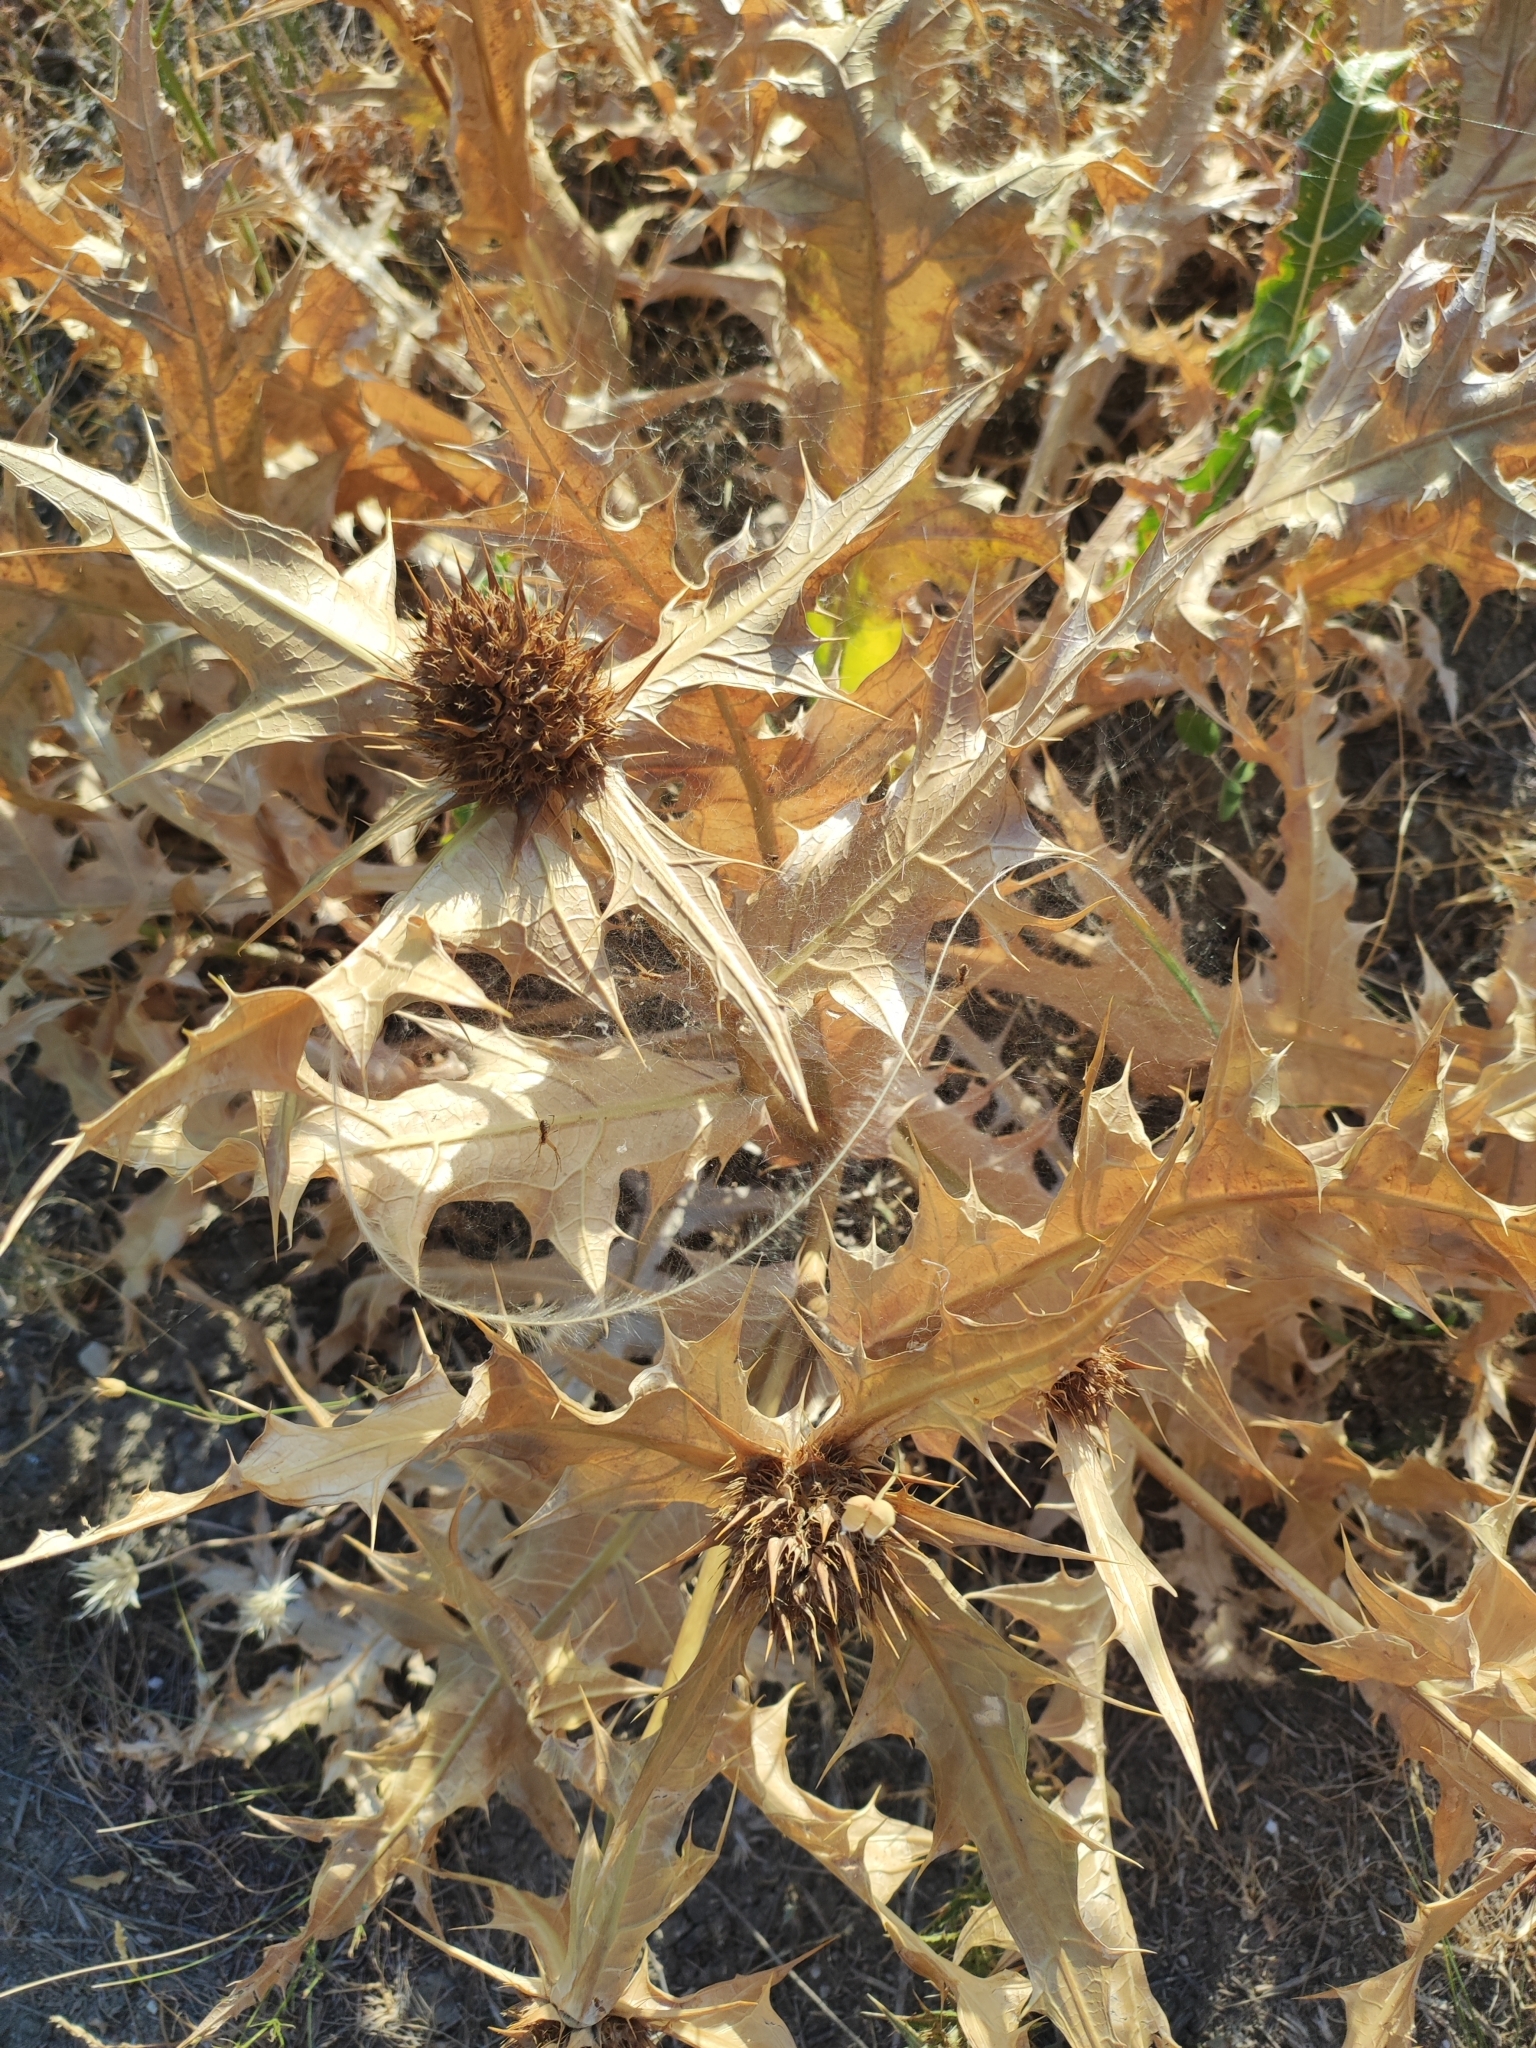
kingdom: Plantae
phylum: Tracheophyta
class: Magnoliopsida
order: Apiales
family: Apiaceae
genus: Eryngium
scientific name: Eryngium campestre
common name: Field eryngo
